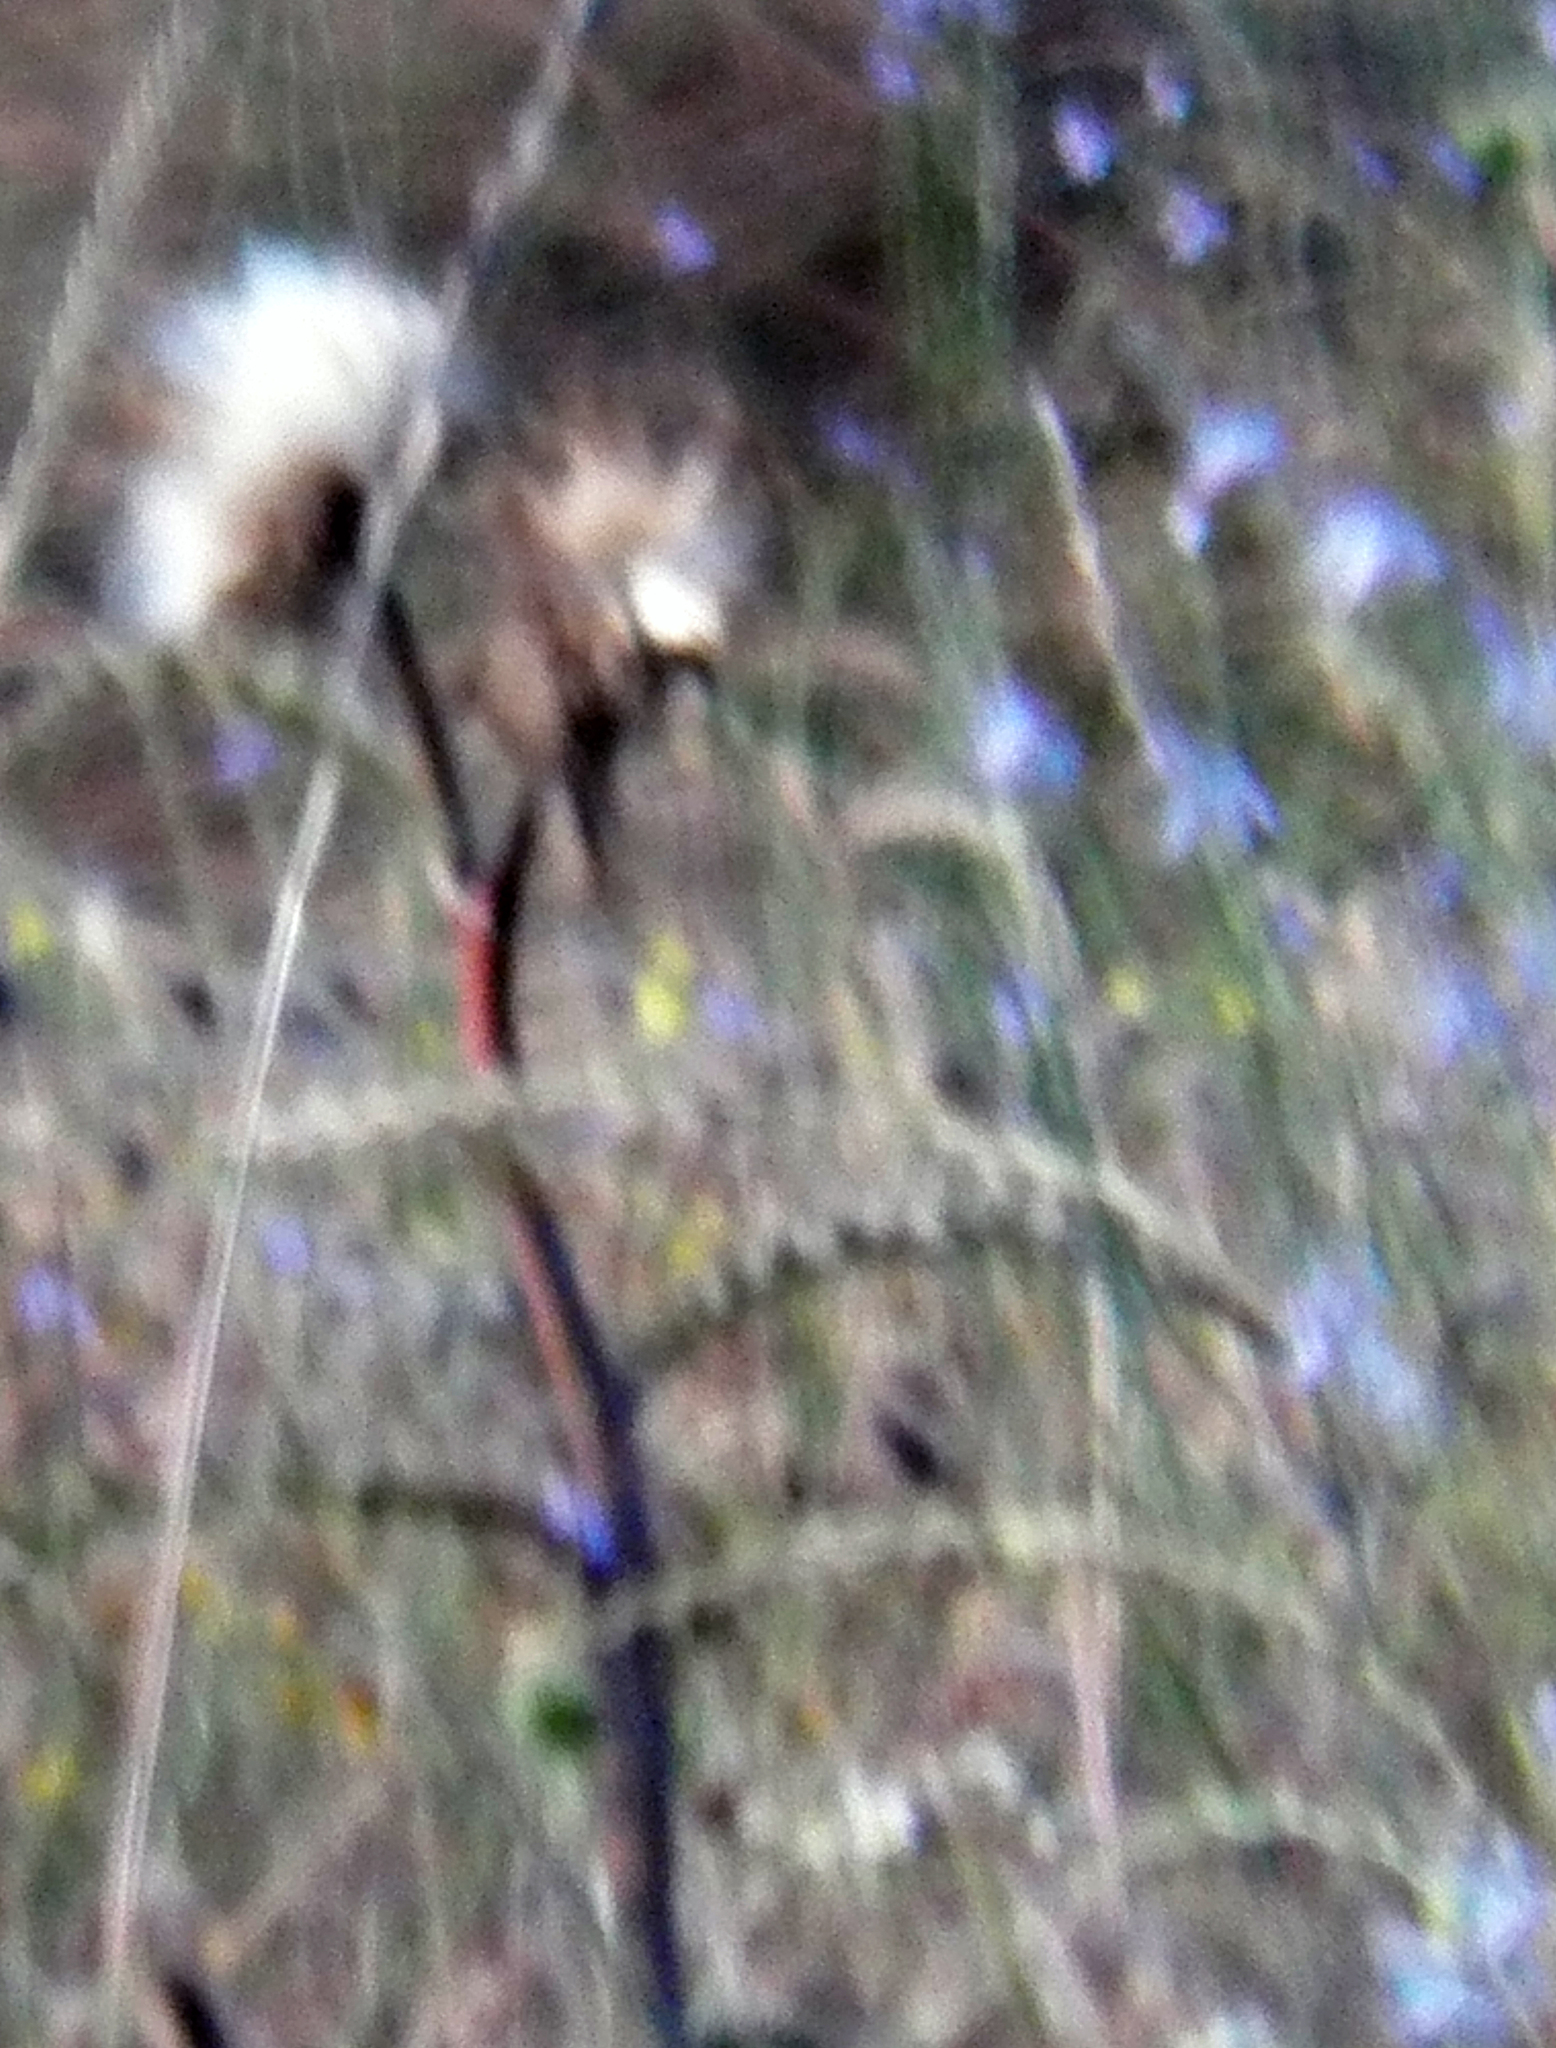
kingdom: Plantae
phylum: Tracheophyta
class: Magnoliopsida
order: Asterales
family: Asteraceae
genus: Cirsium
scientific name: Cirsium horridulum
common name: Bristly thistle
